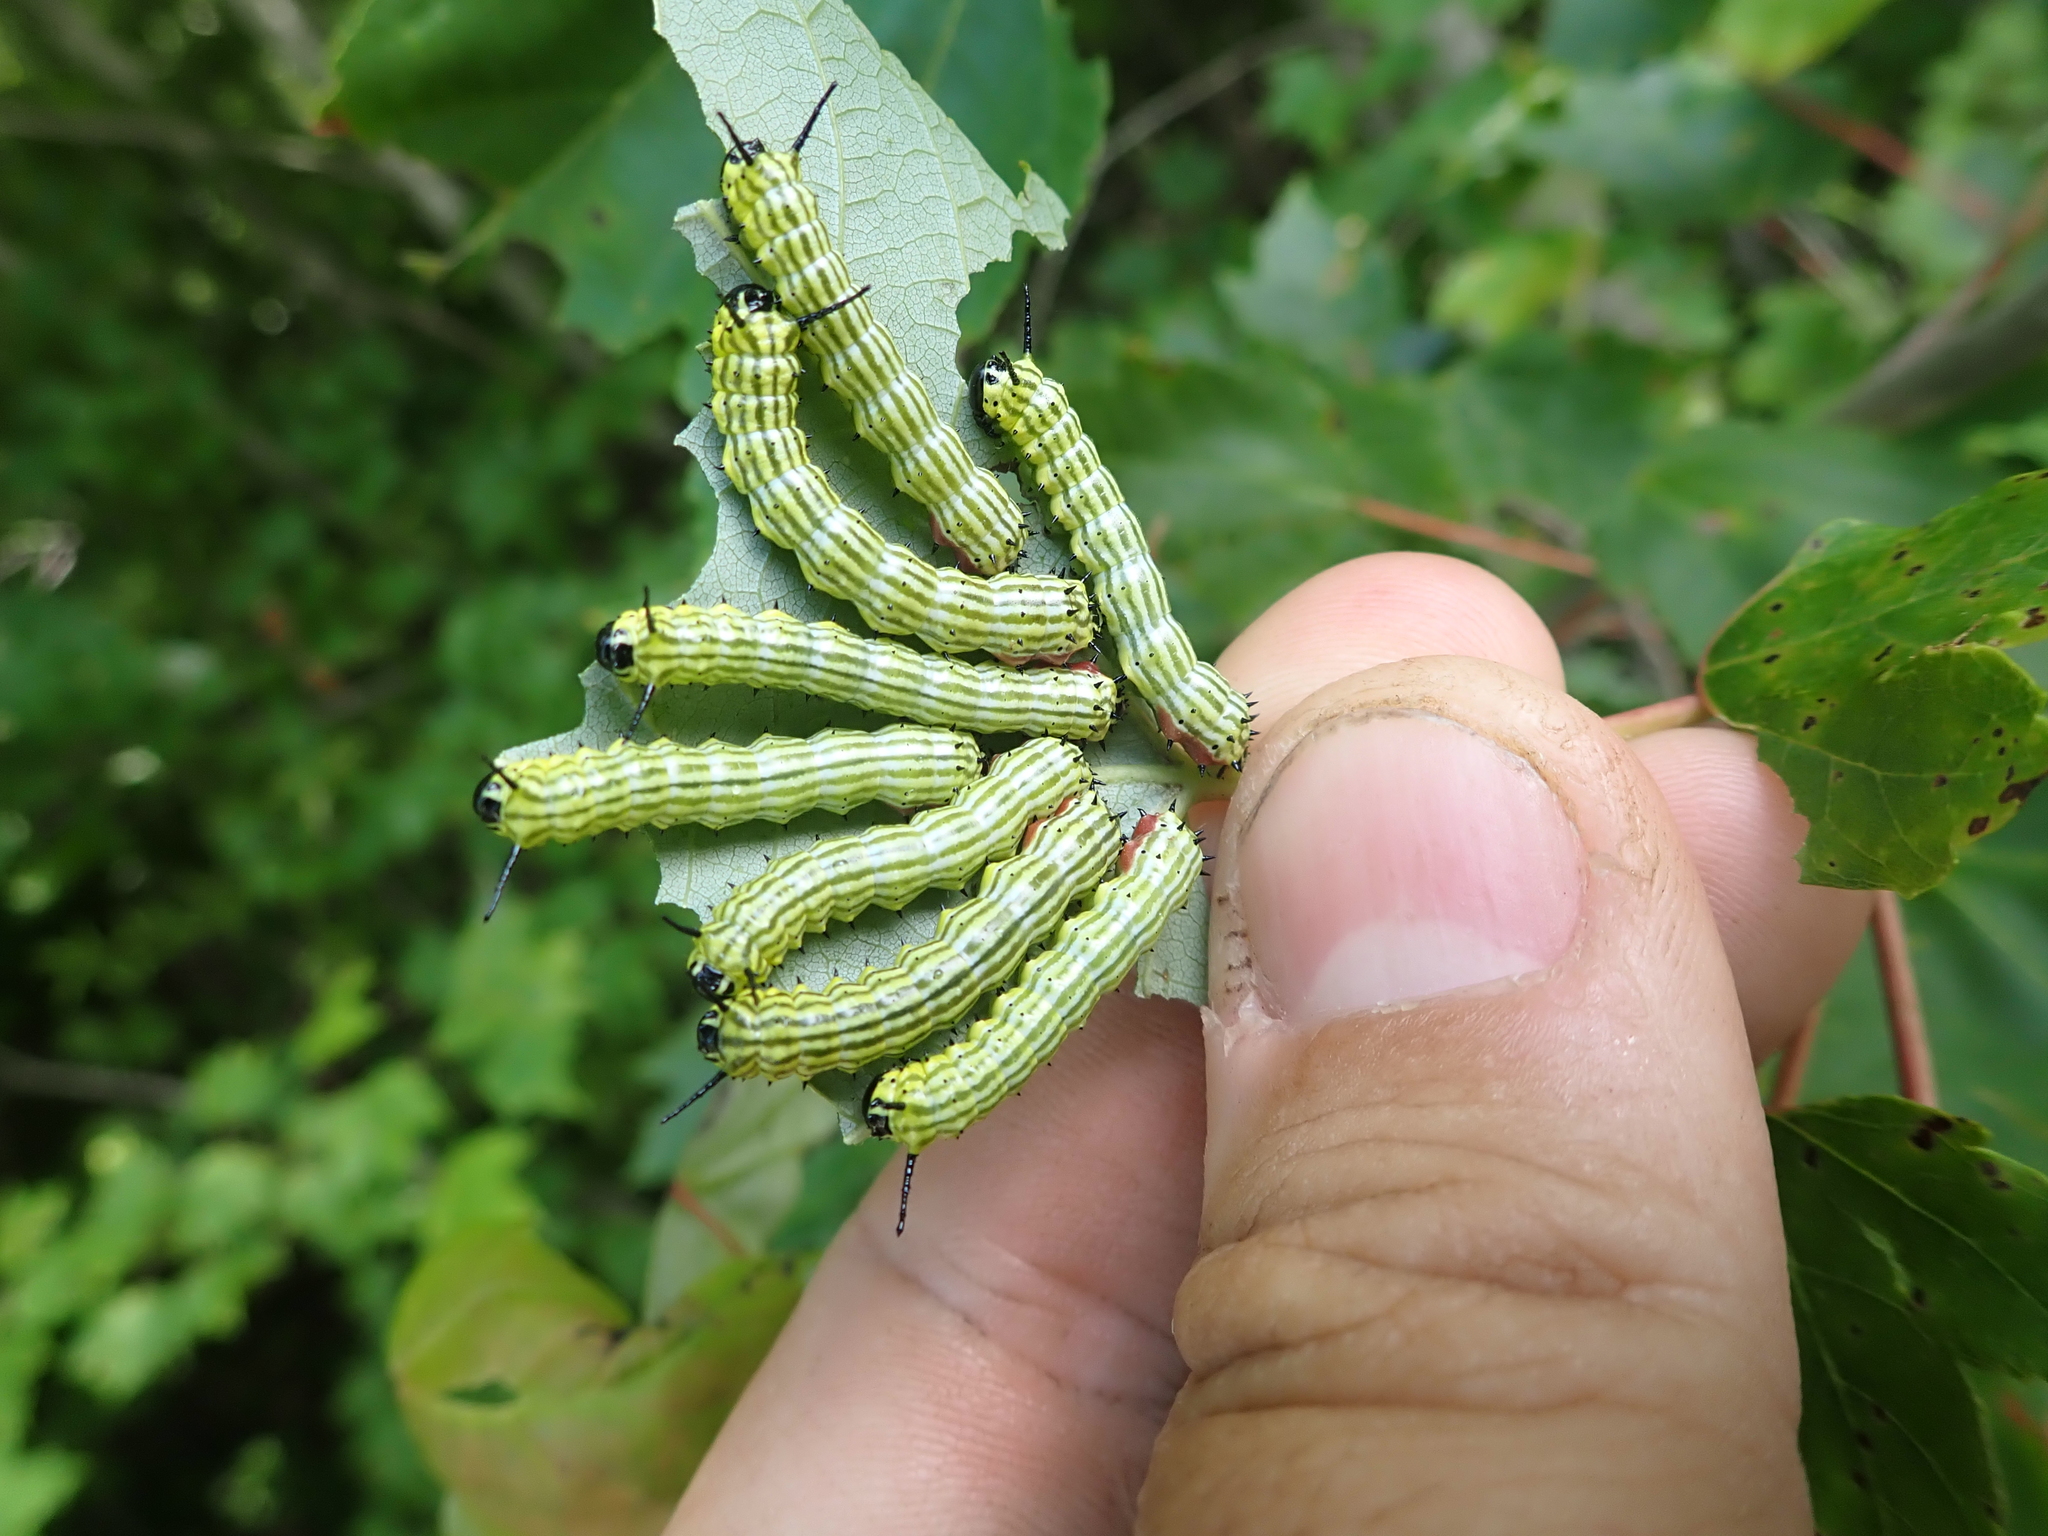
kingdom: Animalia
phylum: Arthropoda
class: Insecta
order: Lepidoptera
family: Saturniidae
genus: Dryocampa
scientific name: Dryocampa rubicunda
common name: Rosy maple moth
